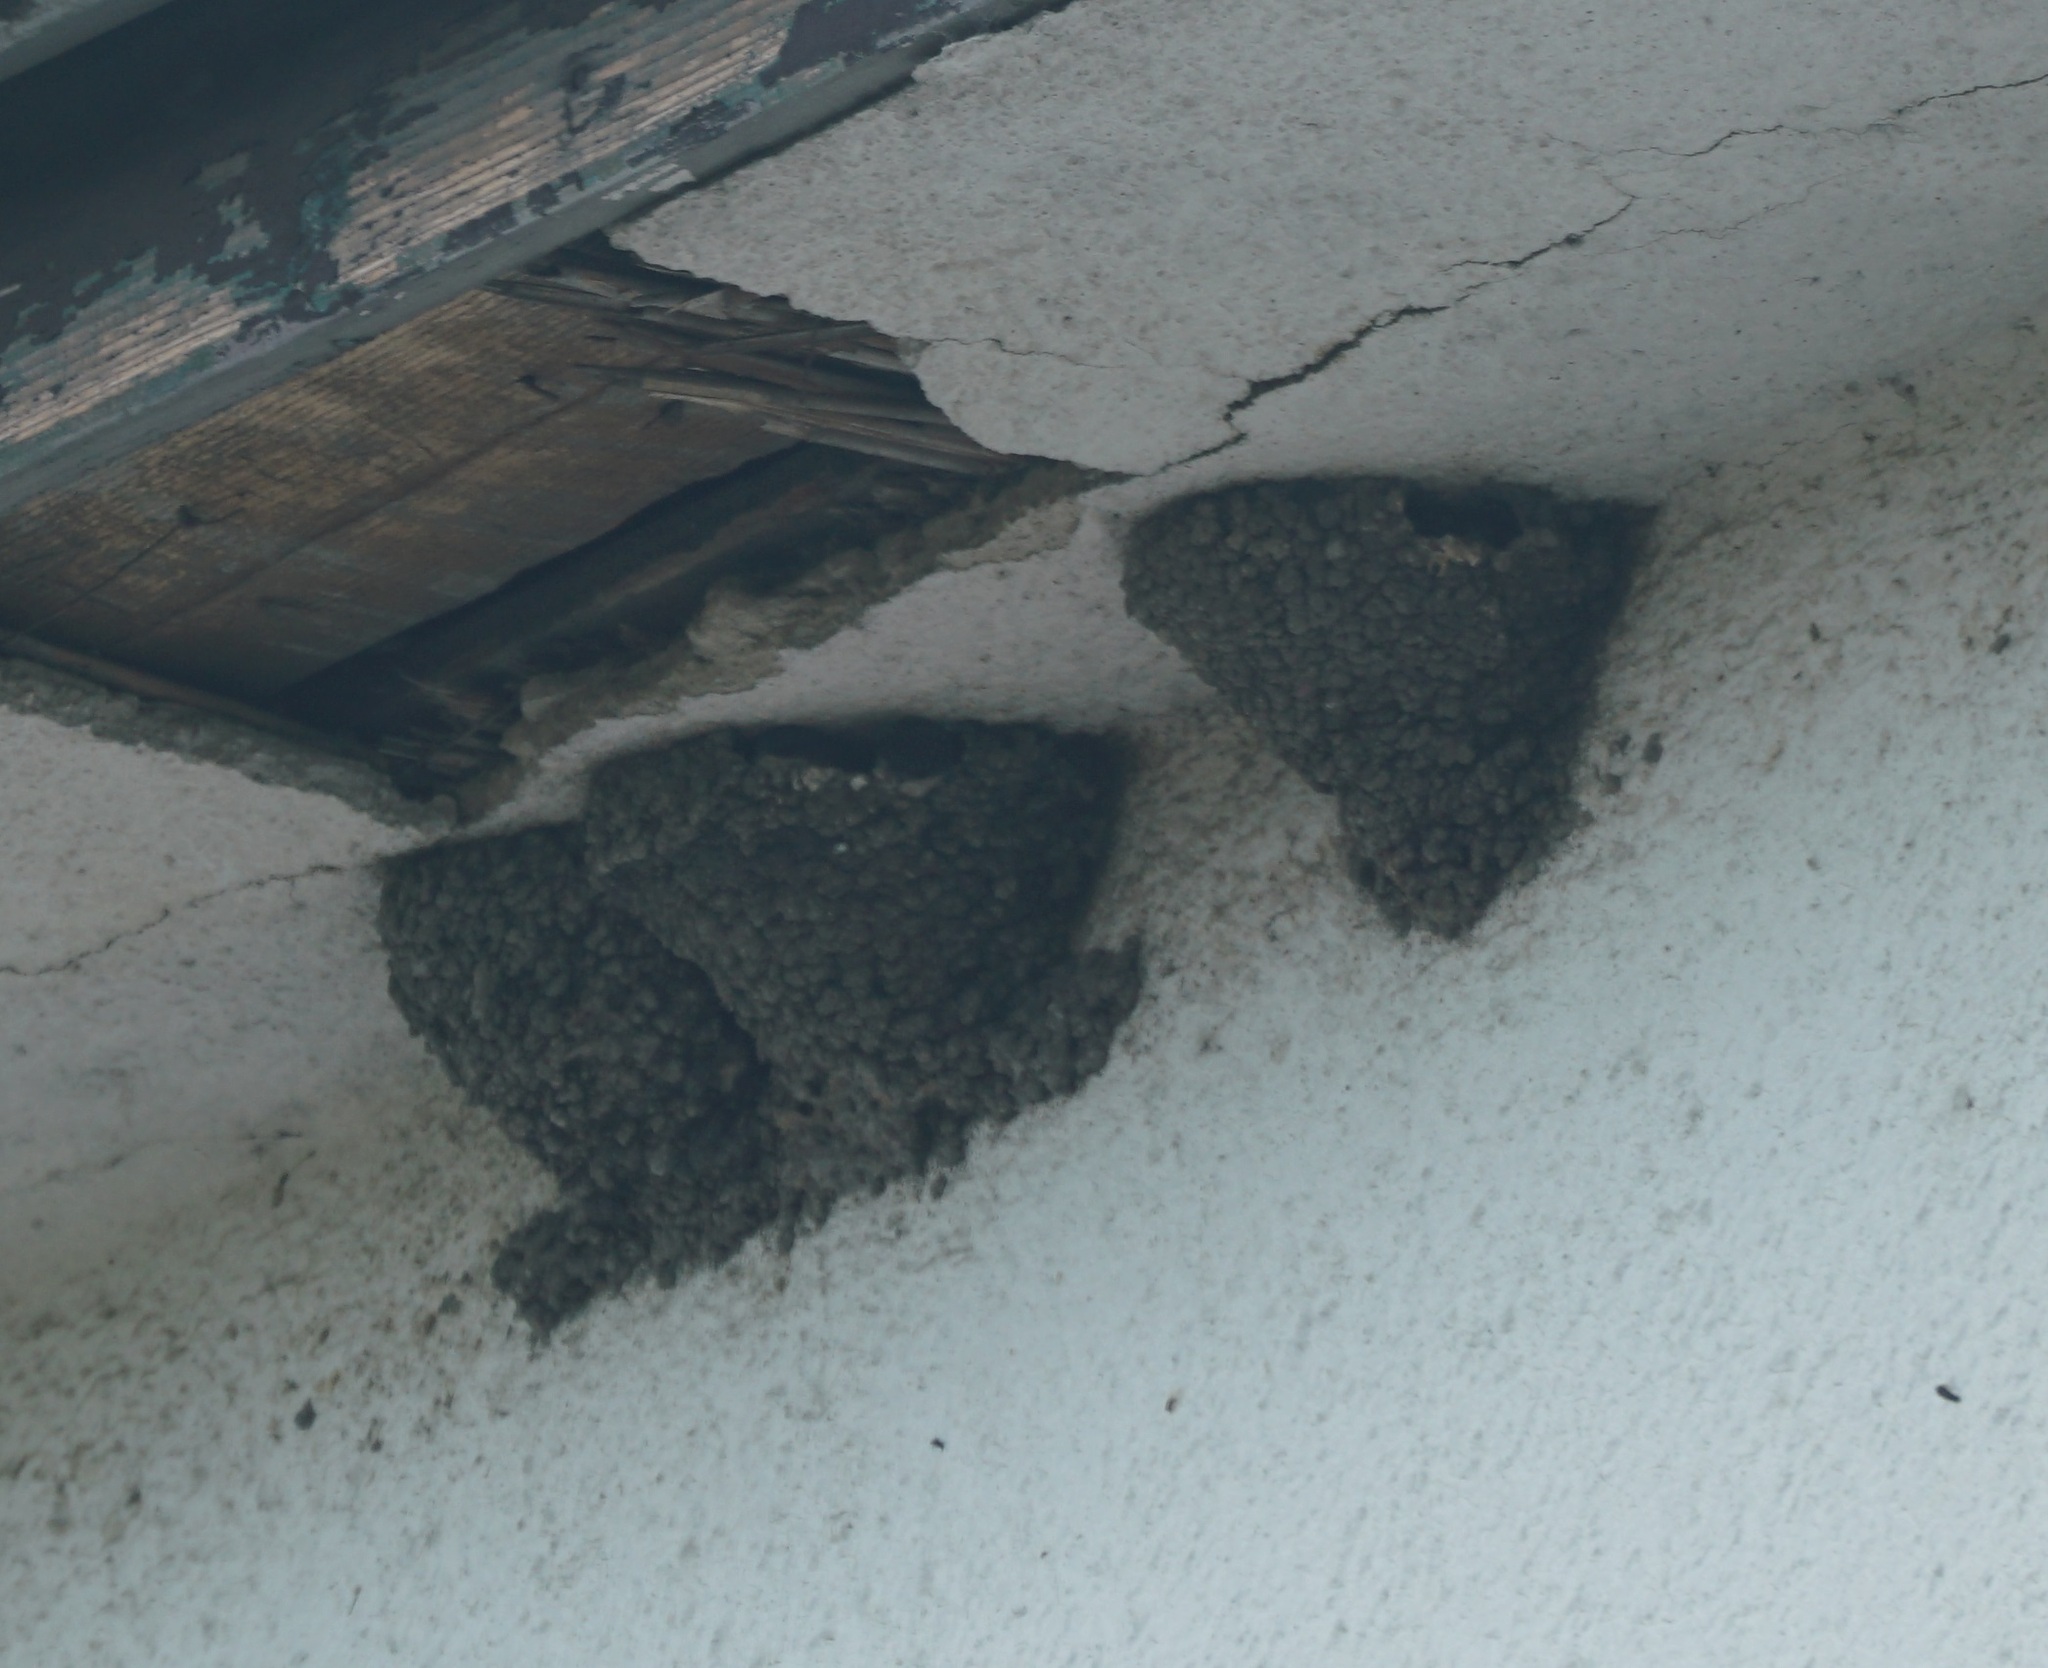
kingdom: Animalia
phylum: Chordata
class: Aves
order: Passeriformes
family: Hirundinidae
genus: Delichon
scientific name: Delichon urbicum
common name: Common house martin
